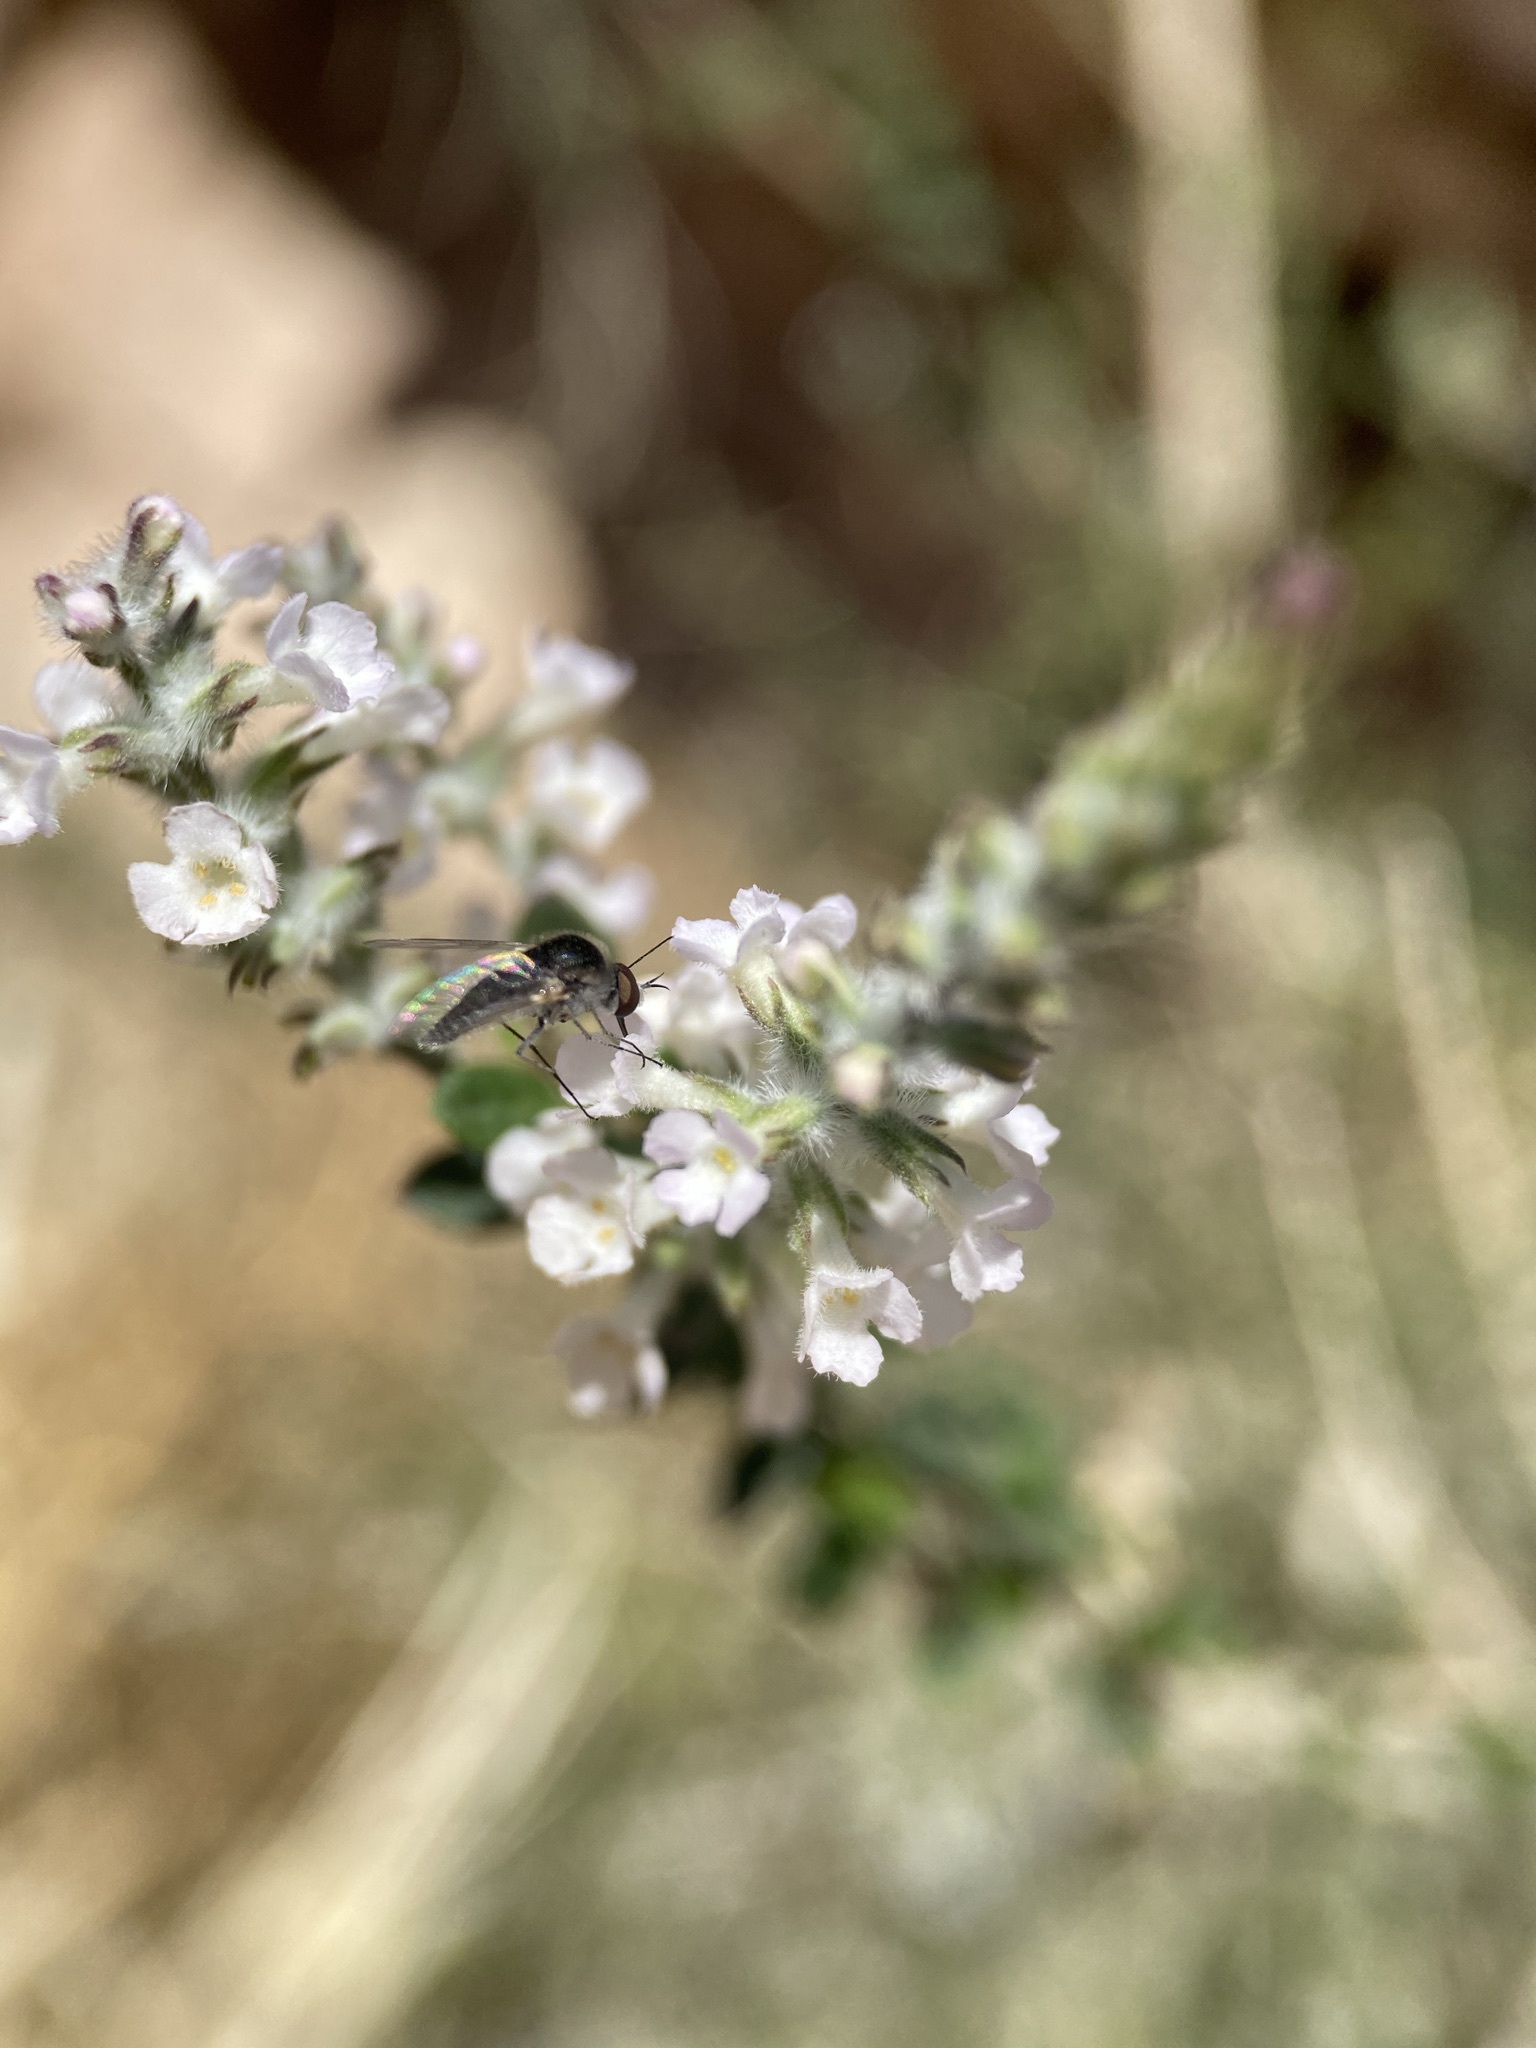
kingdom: Plantae
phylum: Tracheophyta
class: Magnoliopsida
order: Lamiales
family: Verbenaceae
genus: Aloysia
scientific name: Aloysia gratissima
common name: Common bee-brush
